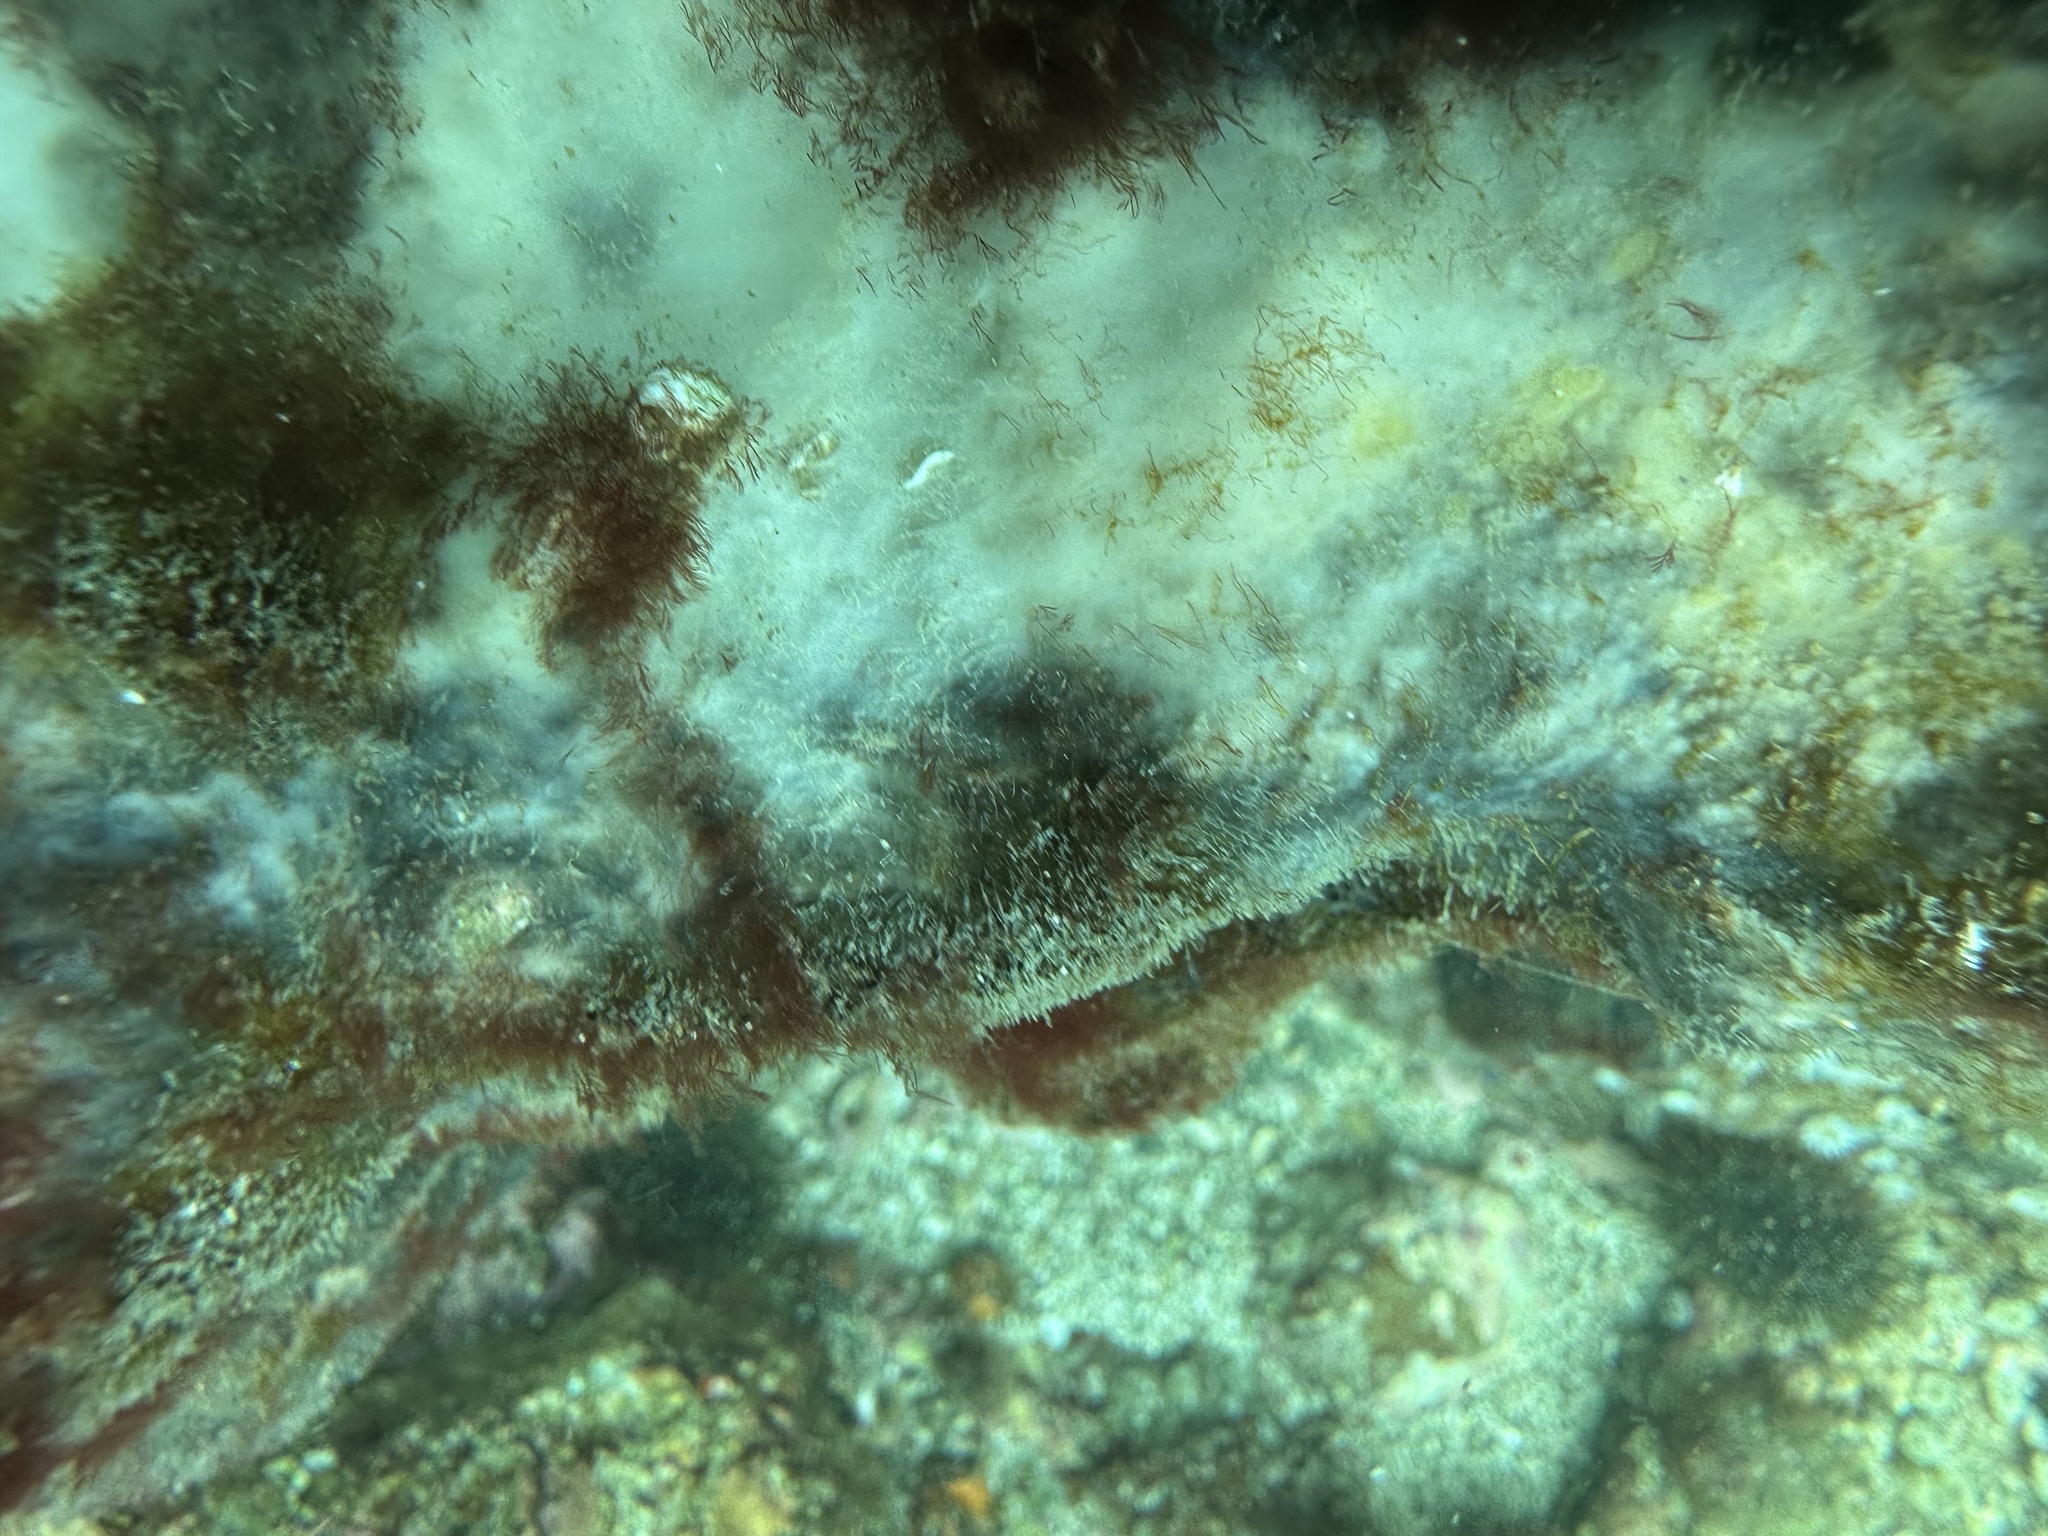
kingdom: Animalia
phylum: Porifera
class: Demospongiae
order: Tetractinellida
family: Ancorinidae
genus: Ecionemia
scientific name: Ecionemia alata
